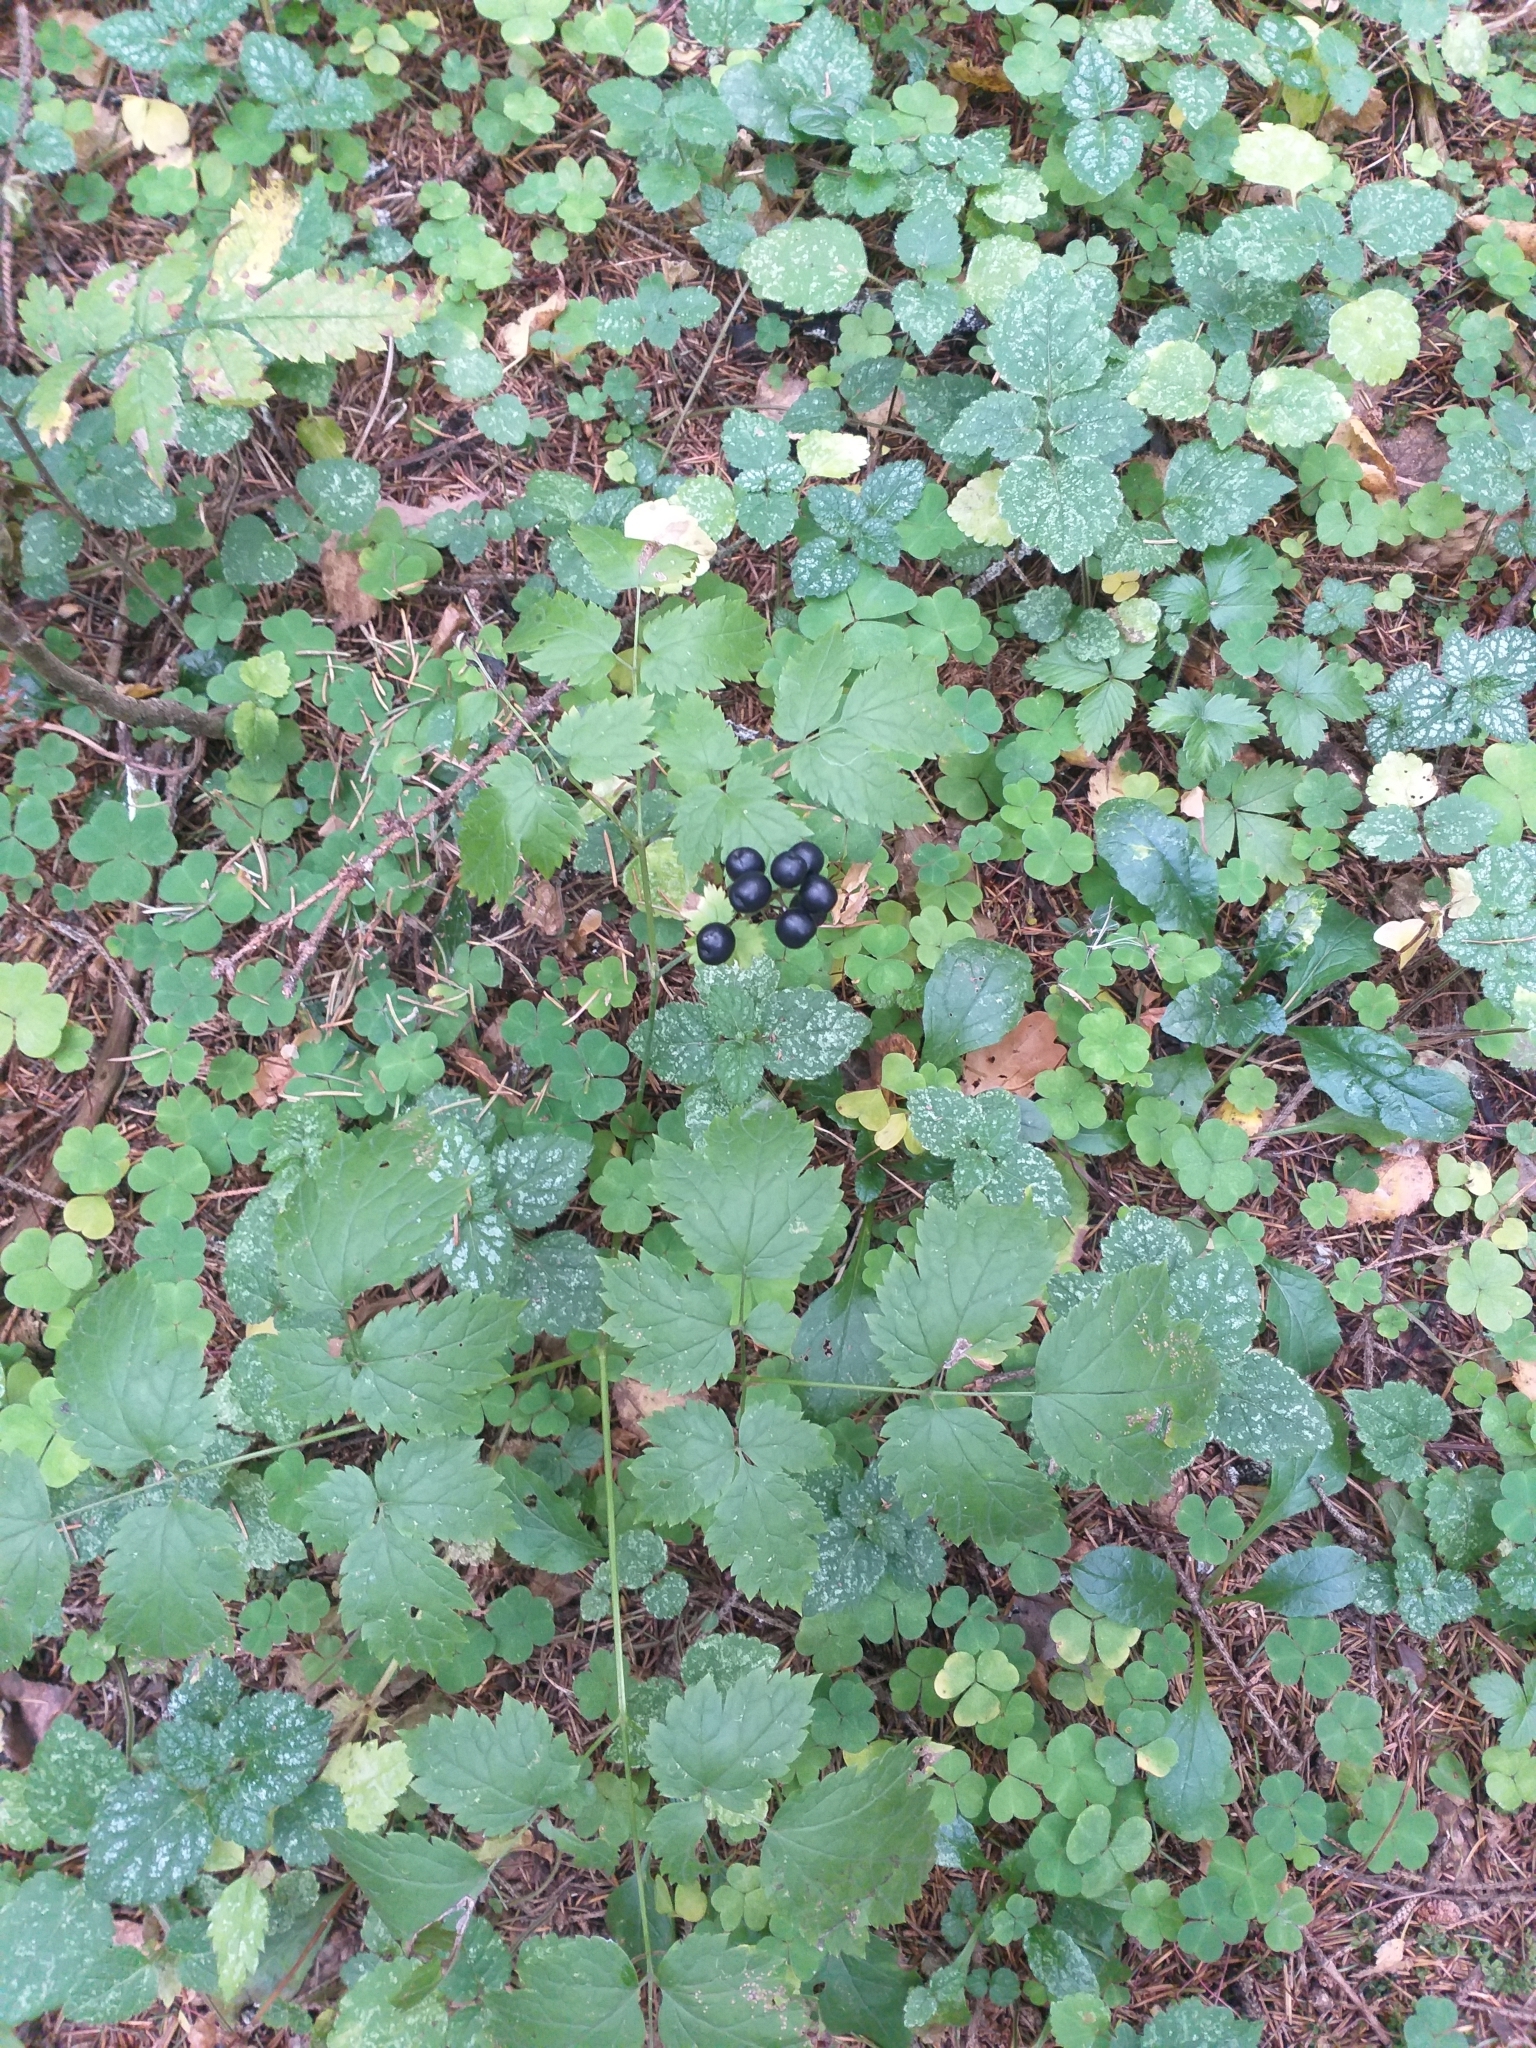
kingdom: Plantae
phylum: Tracheophyta
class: Magnoliopsida
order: Ranunculales
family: Ranunculaceae
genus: Actaea
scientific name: Actaea spicata
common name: Baneberry
